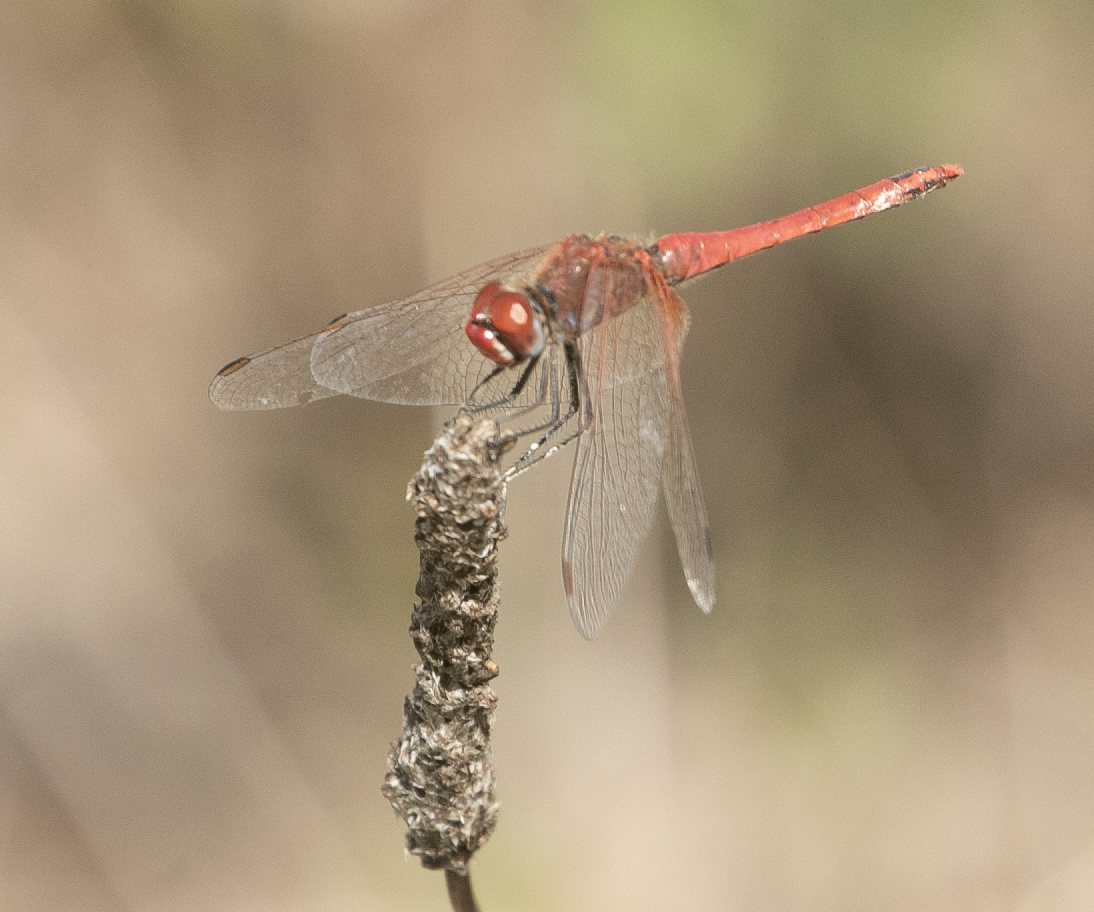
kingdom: Animalia
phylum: Arthropoda
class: Insecta
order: Odonata
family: Libellulidae
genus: Sympetrum
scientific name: Sympetrum fonscolombii
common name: Red-veined darter
